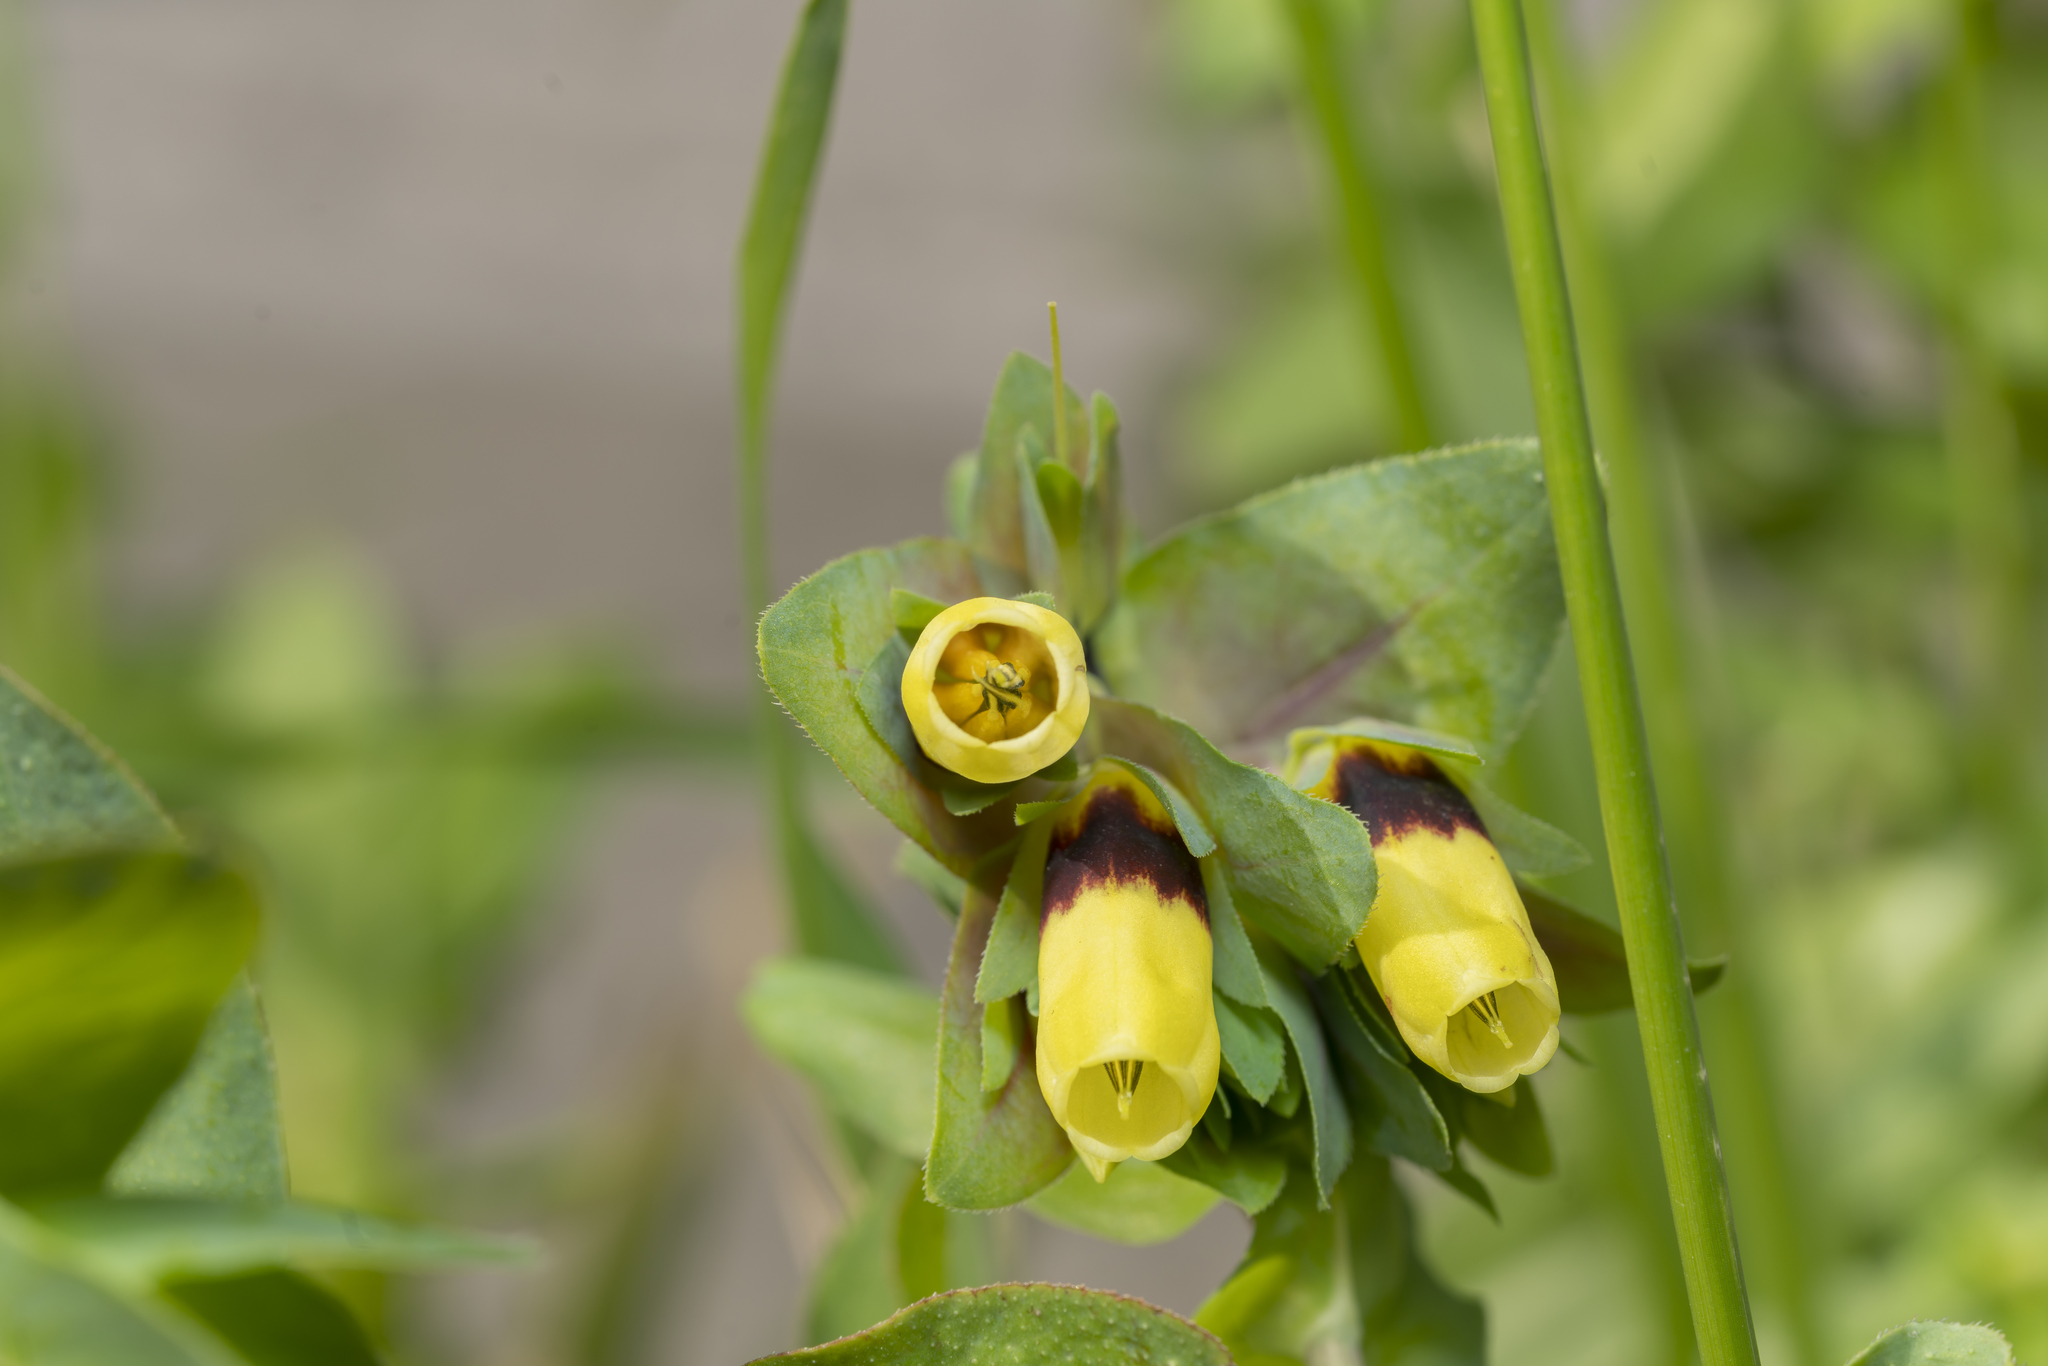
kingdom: Plantae
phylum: Tracheophyta
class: Magnoliopsida
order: Boraginales
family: Boraginaceae
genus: Cerinthe
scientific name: Cerinthe major
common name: Greater honeywort
